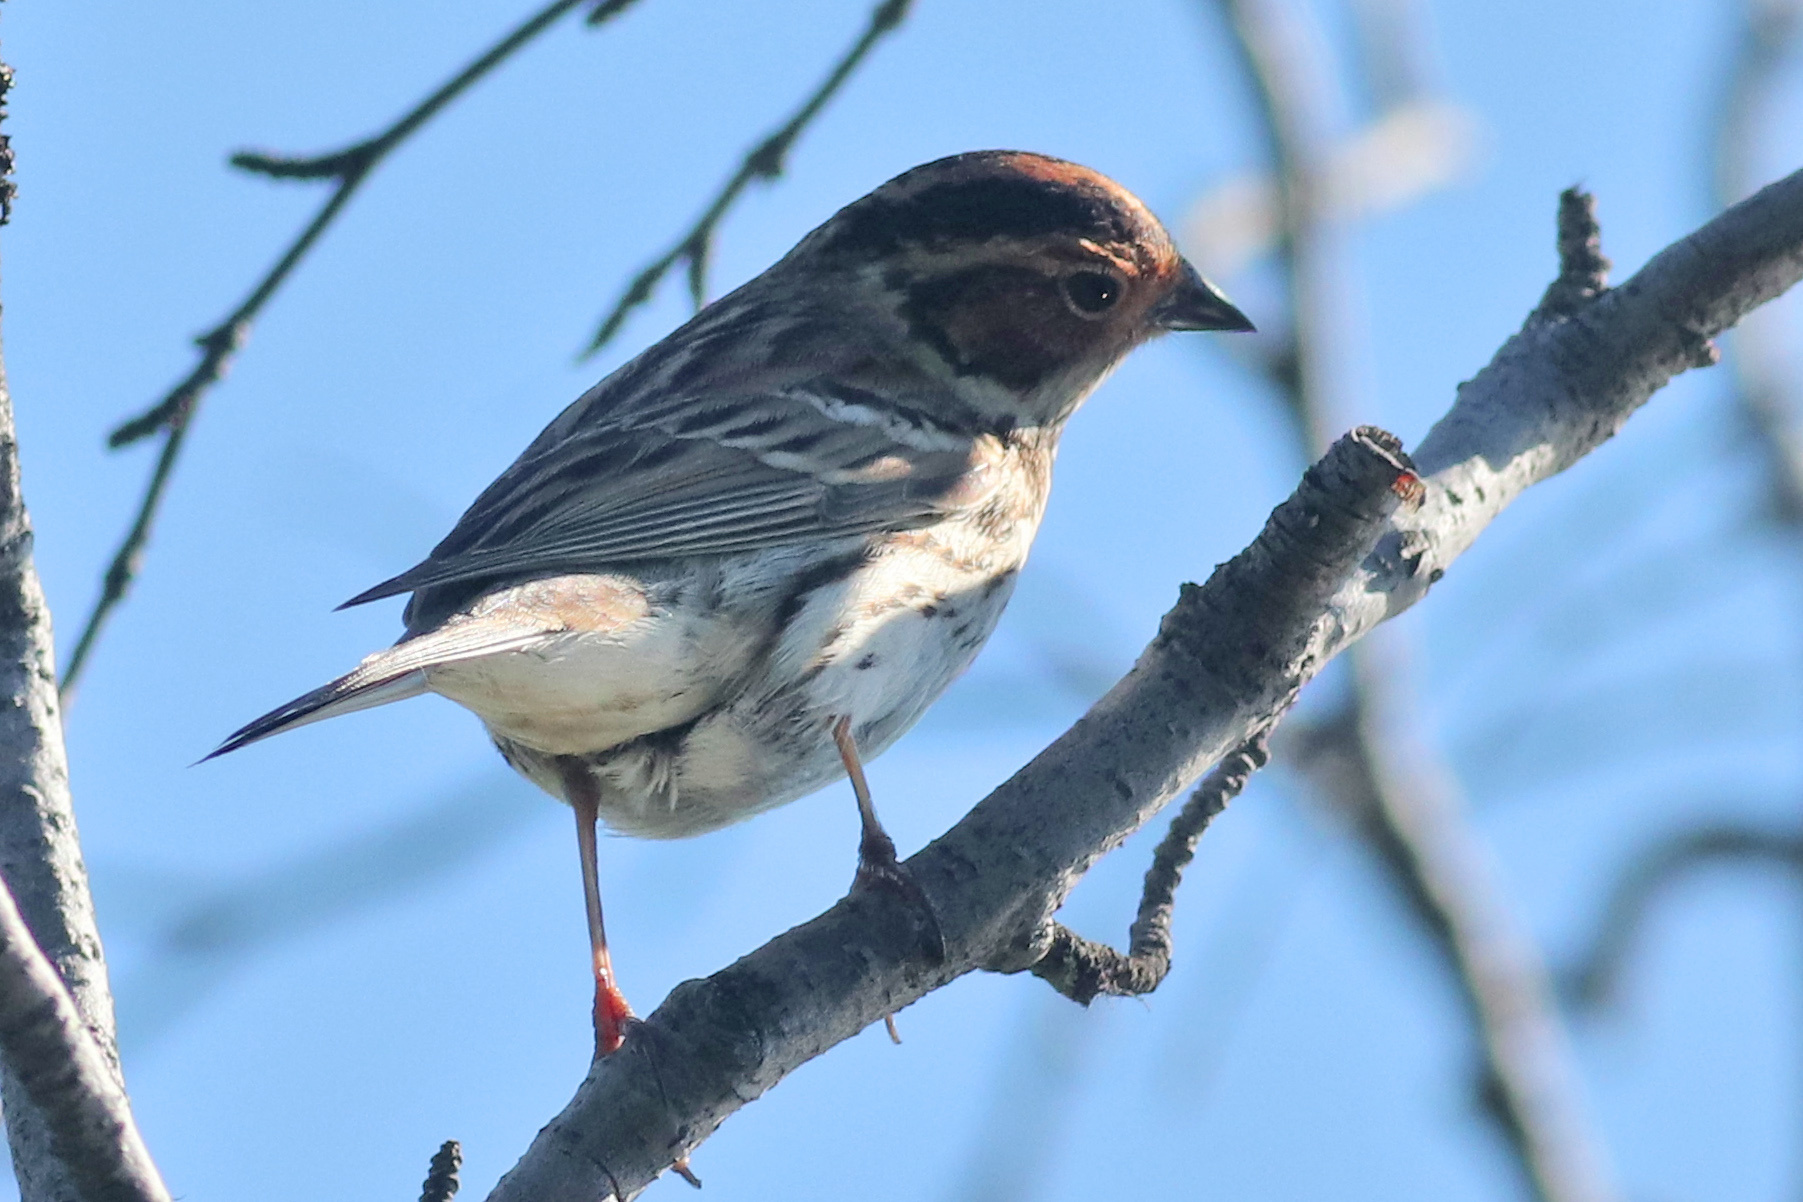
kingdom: Animalia
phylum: Chordata
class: Aves
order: Passeriformes
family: Emberizidae
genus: Emberiza
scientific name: Emberiza pusilla
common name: Little bunting
